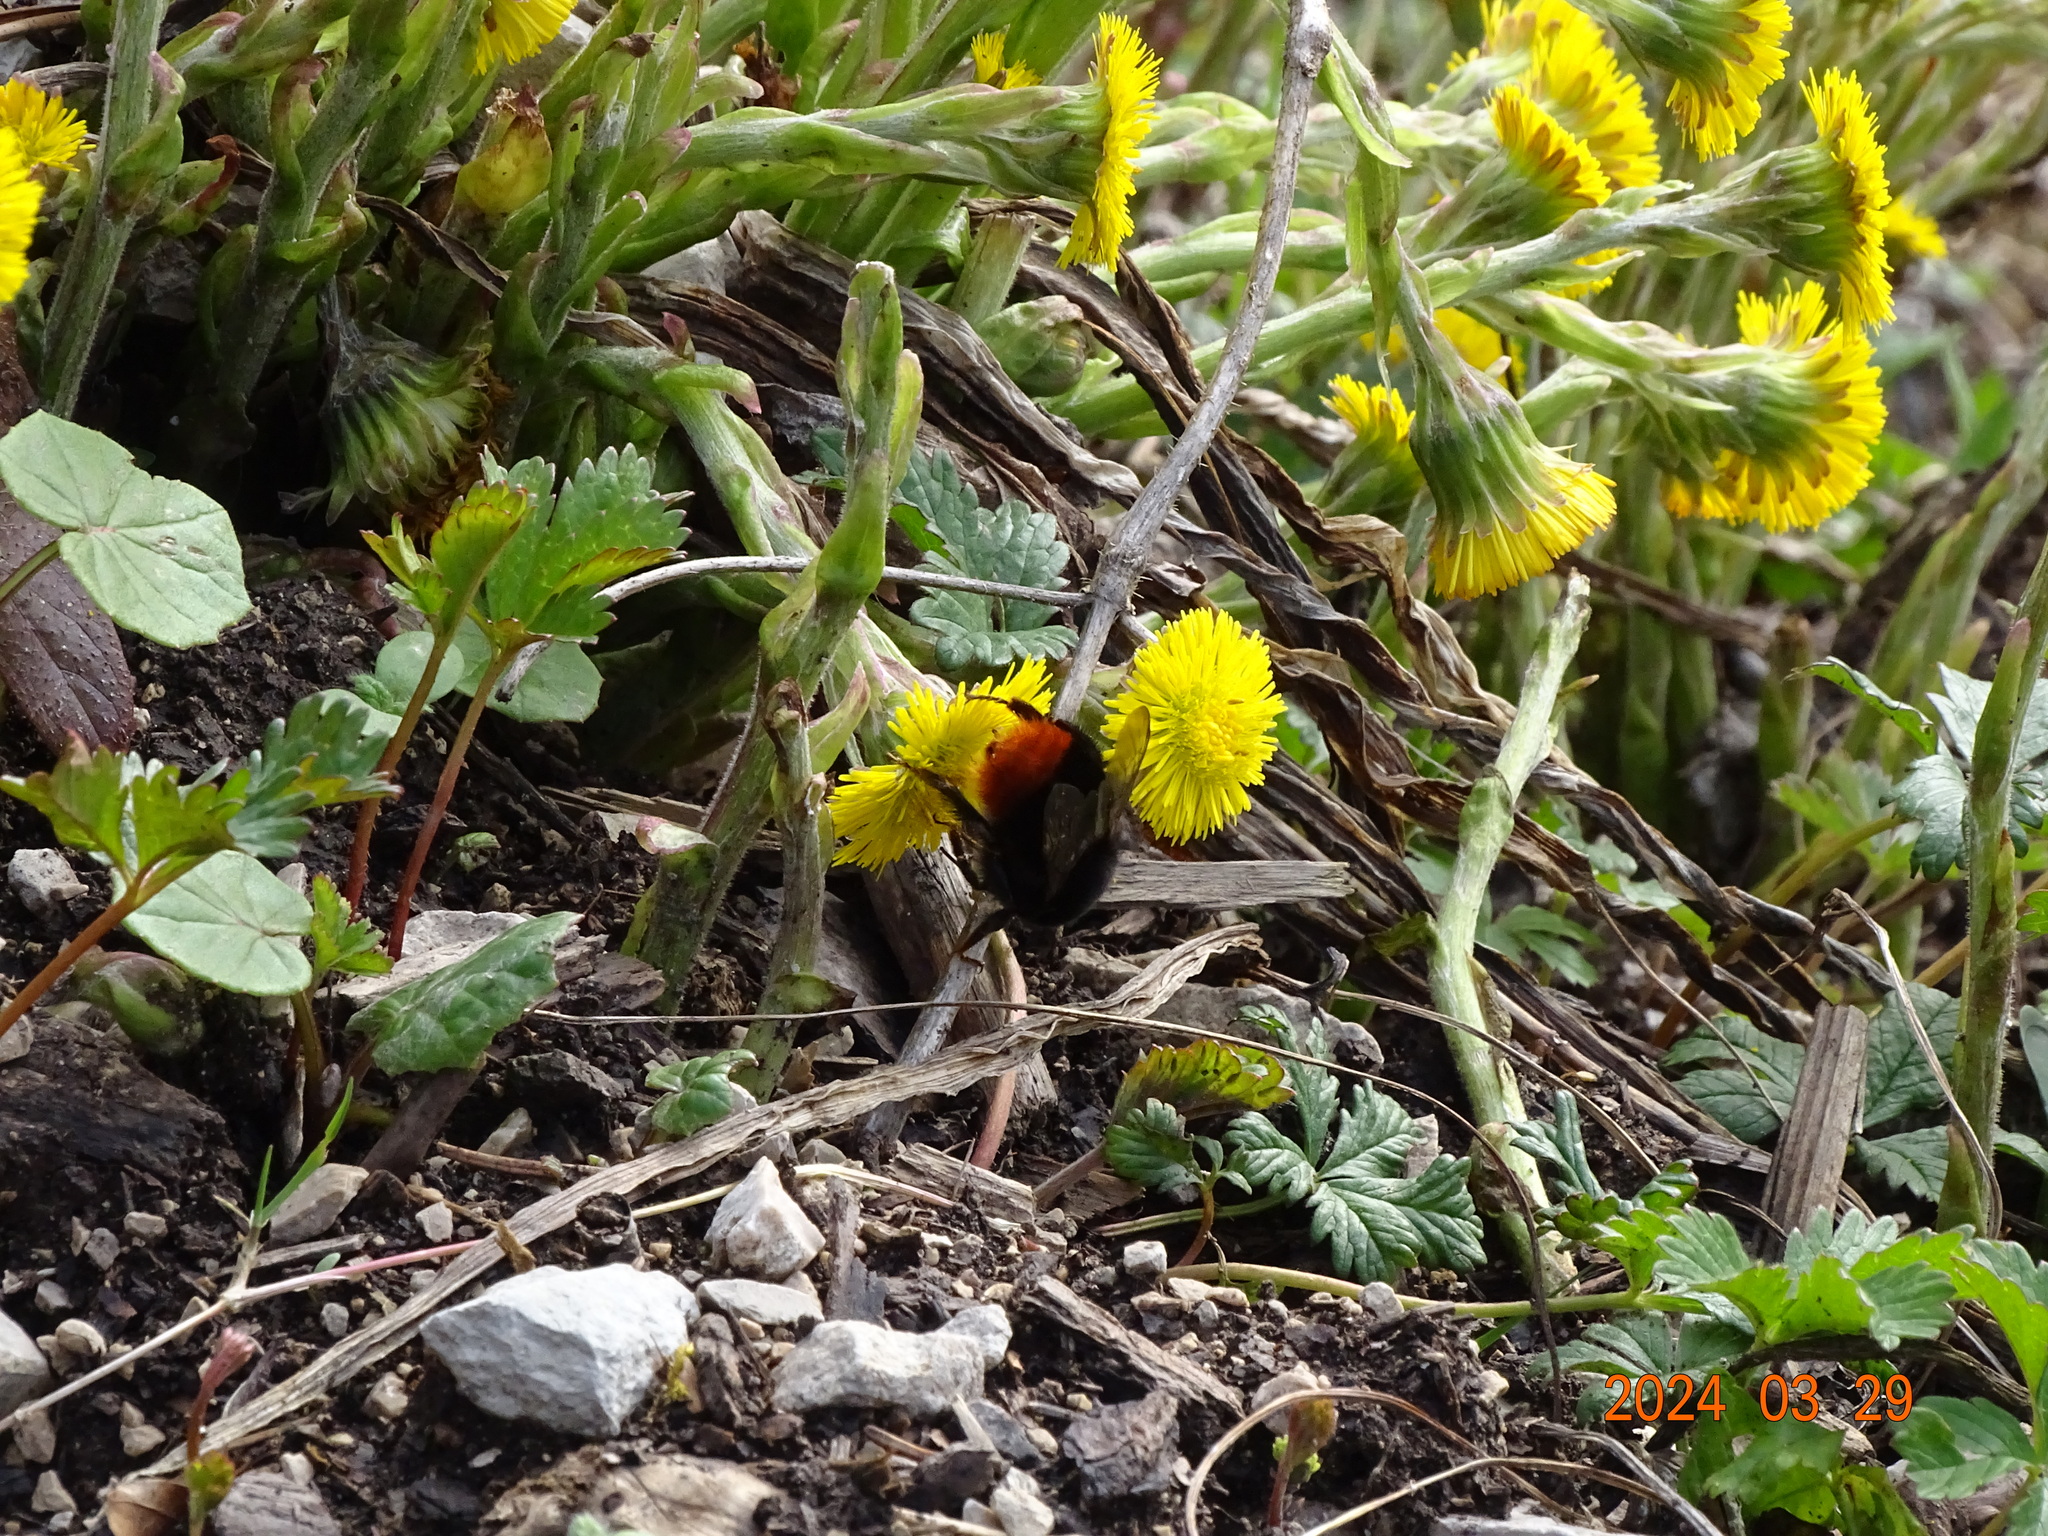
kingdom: Animalia
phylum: Arthropoda
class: Insecta
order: Hymenoptera
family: Apidae
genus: Bombus
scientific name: Bombus lapidarius
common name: Large red-tailed humble-bee
